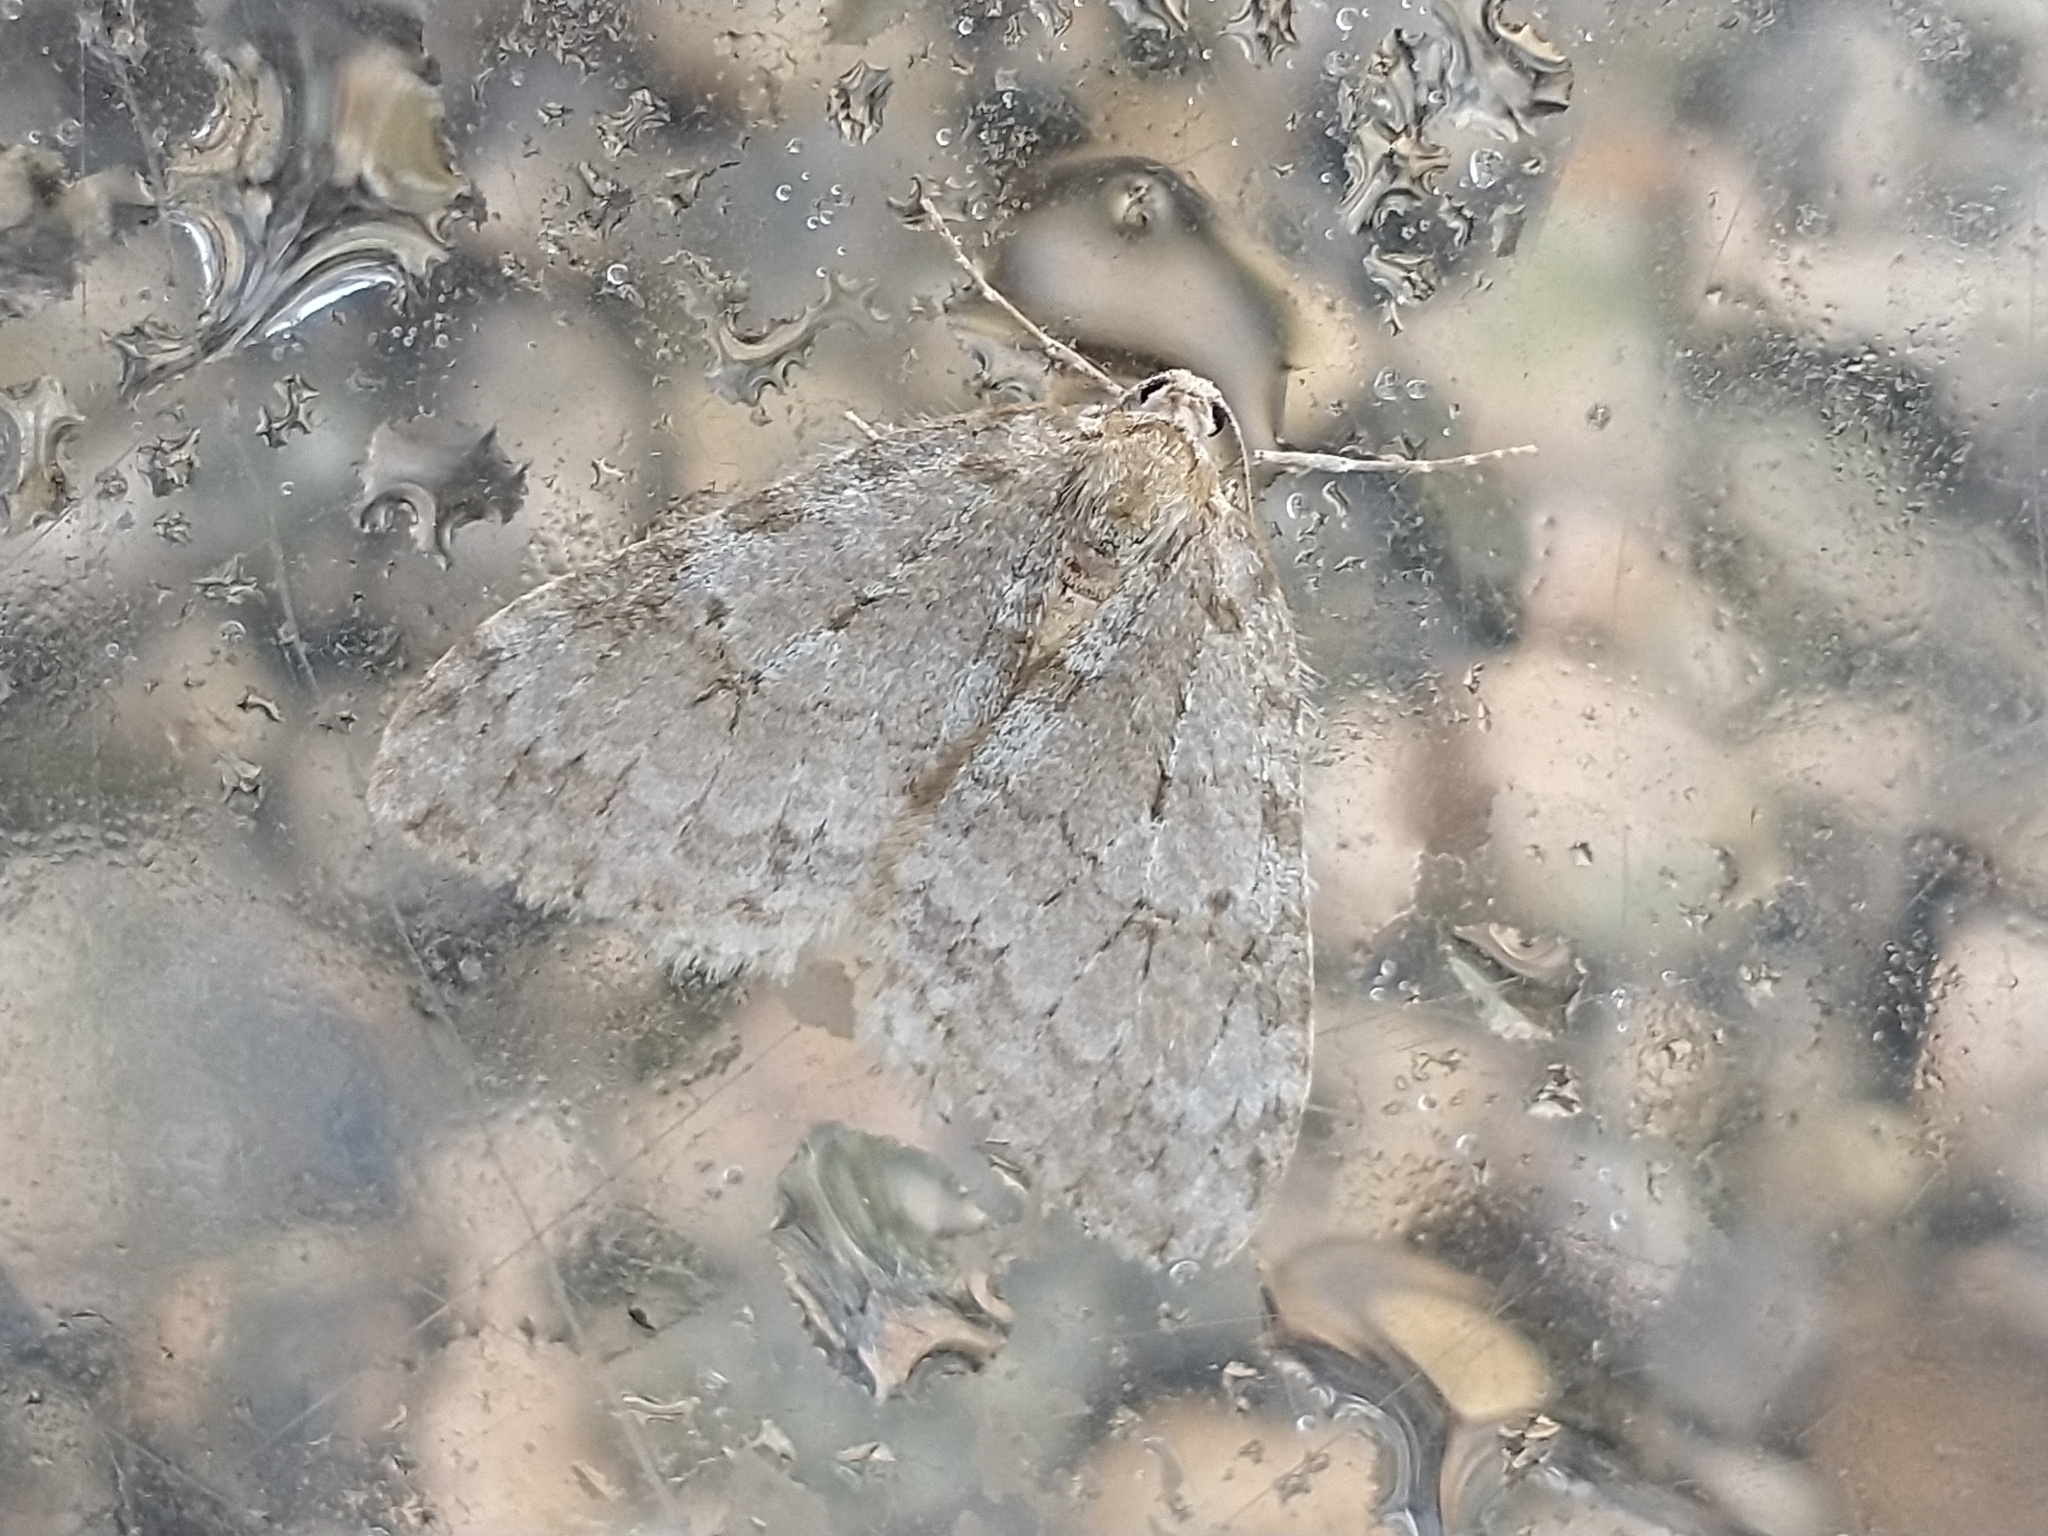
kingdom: Animalia
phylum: Arthropoda
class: Insecta
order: Lepidoptera
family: Geometridae
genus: Epirrita
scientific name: Epirrita
